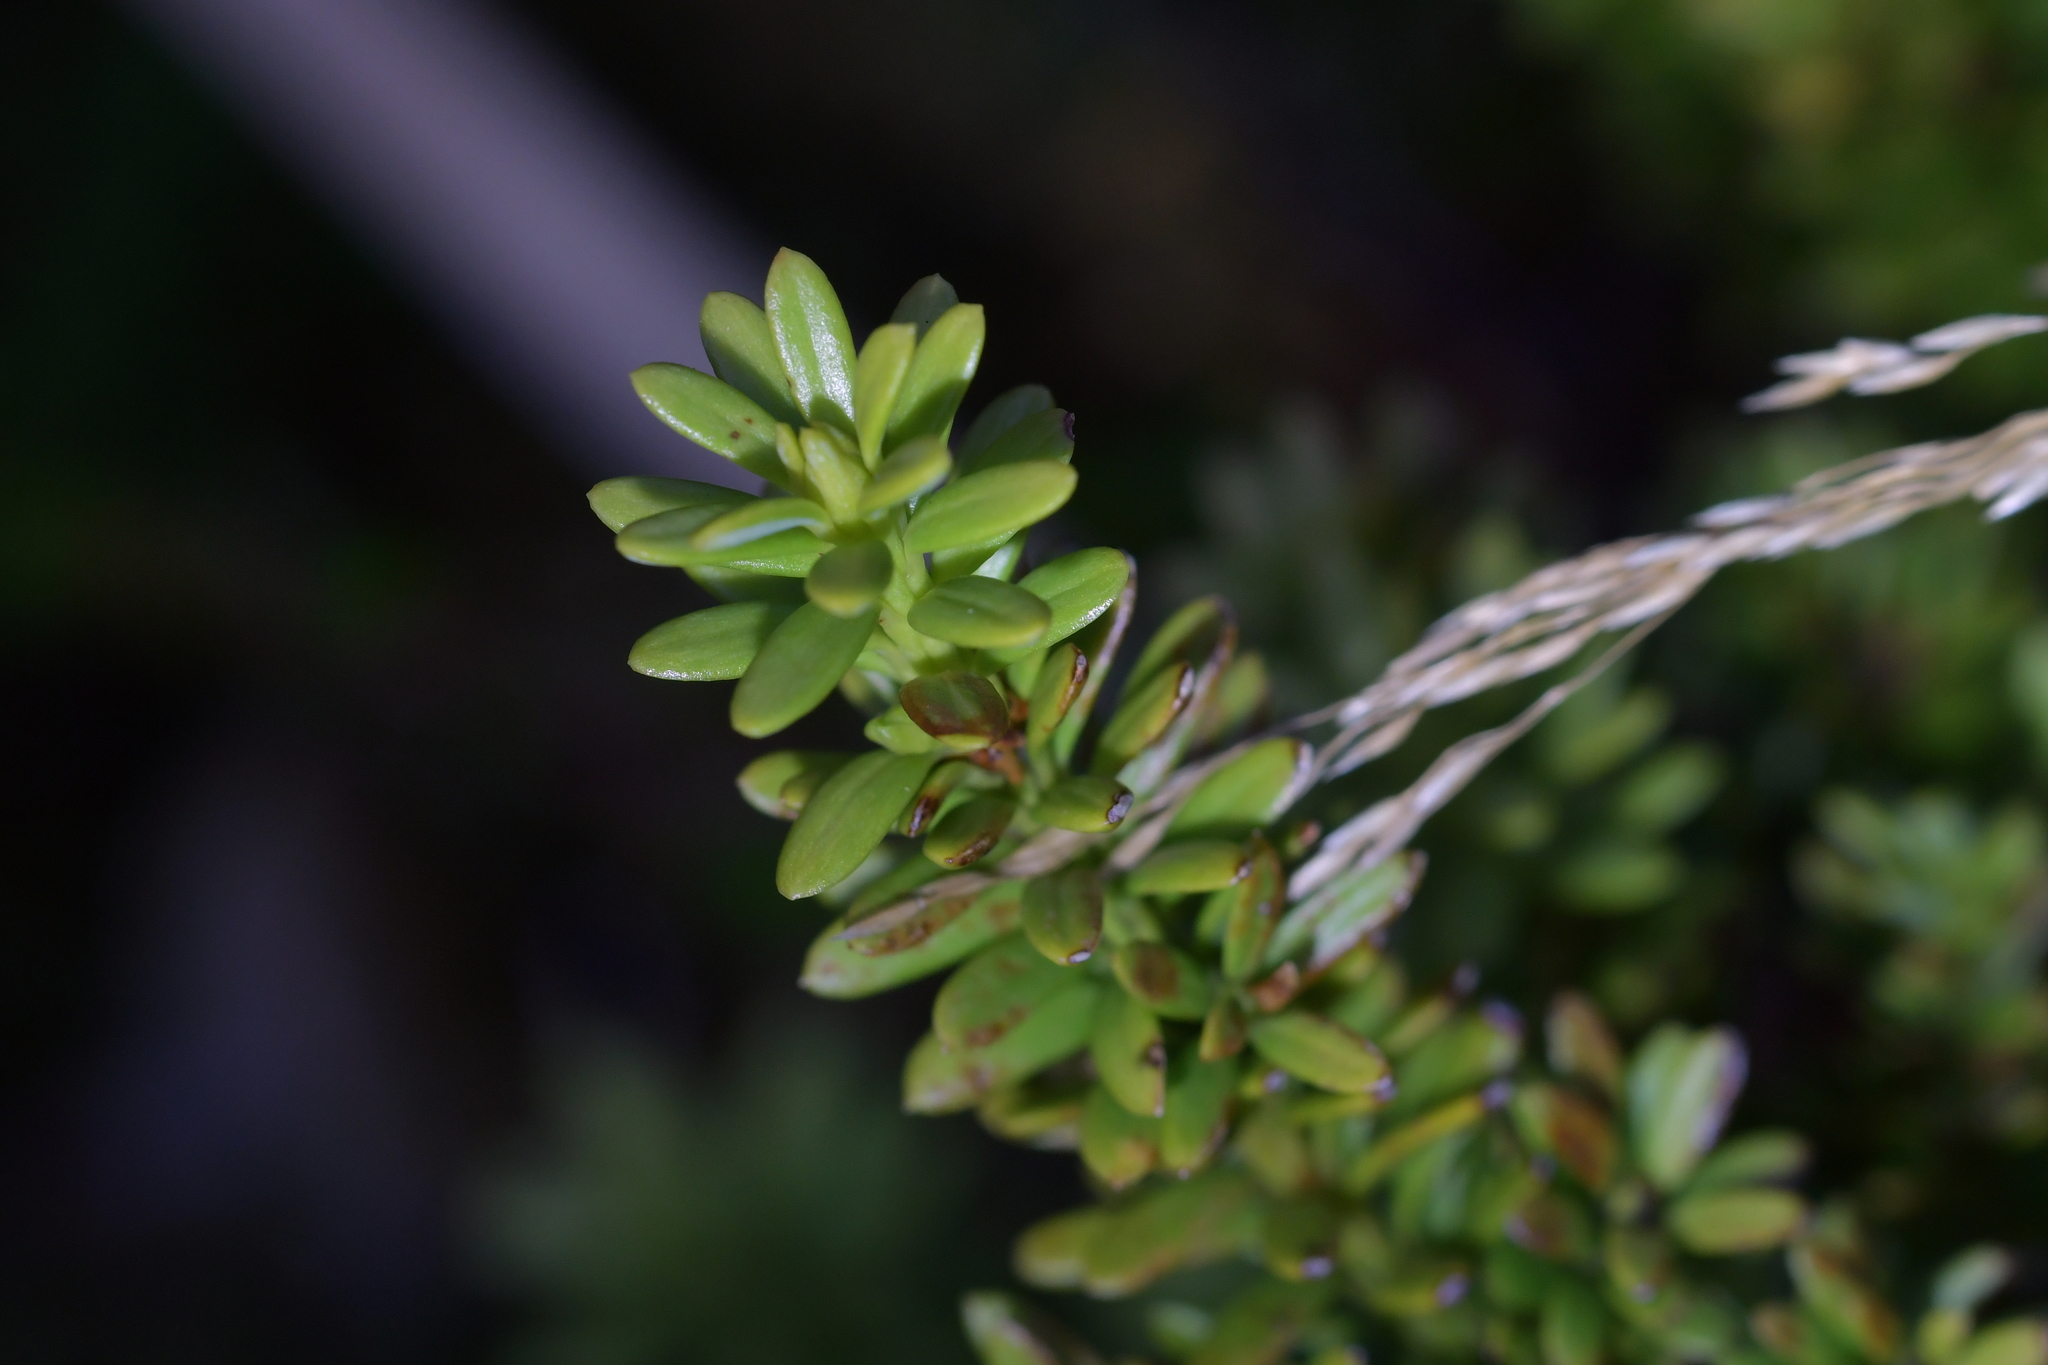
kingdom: Plantae
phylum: Tracheophyta
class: Pinopsida
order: Pinales
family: Podocarpaceae
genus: Podocarpus
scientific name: Podocarpus nivalis
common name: Alpine totara
